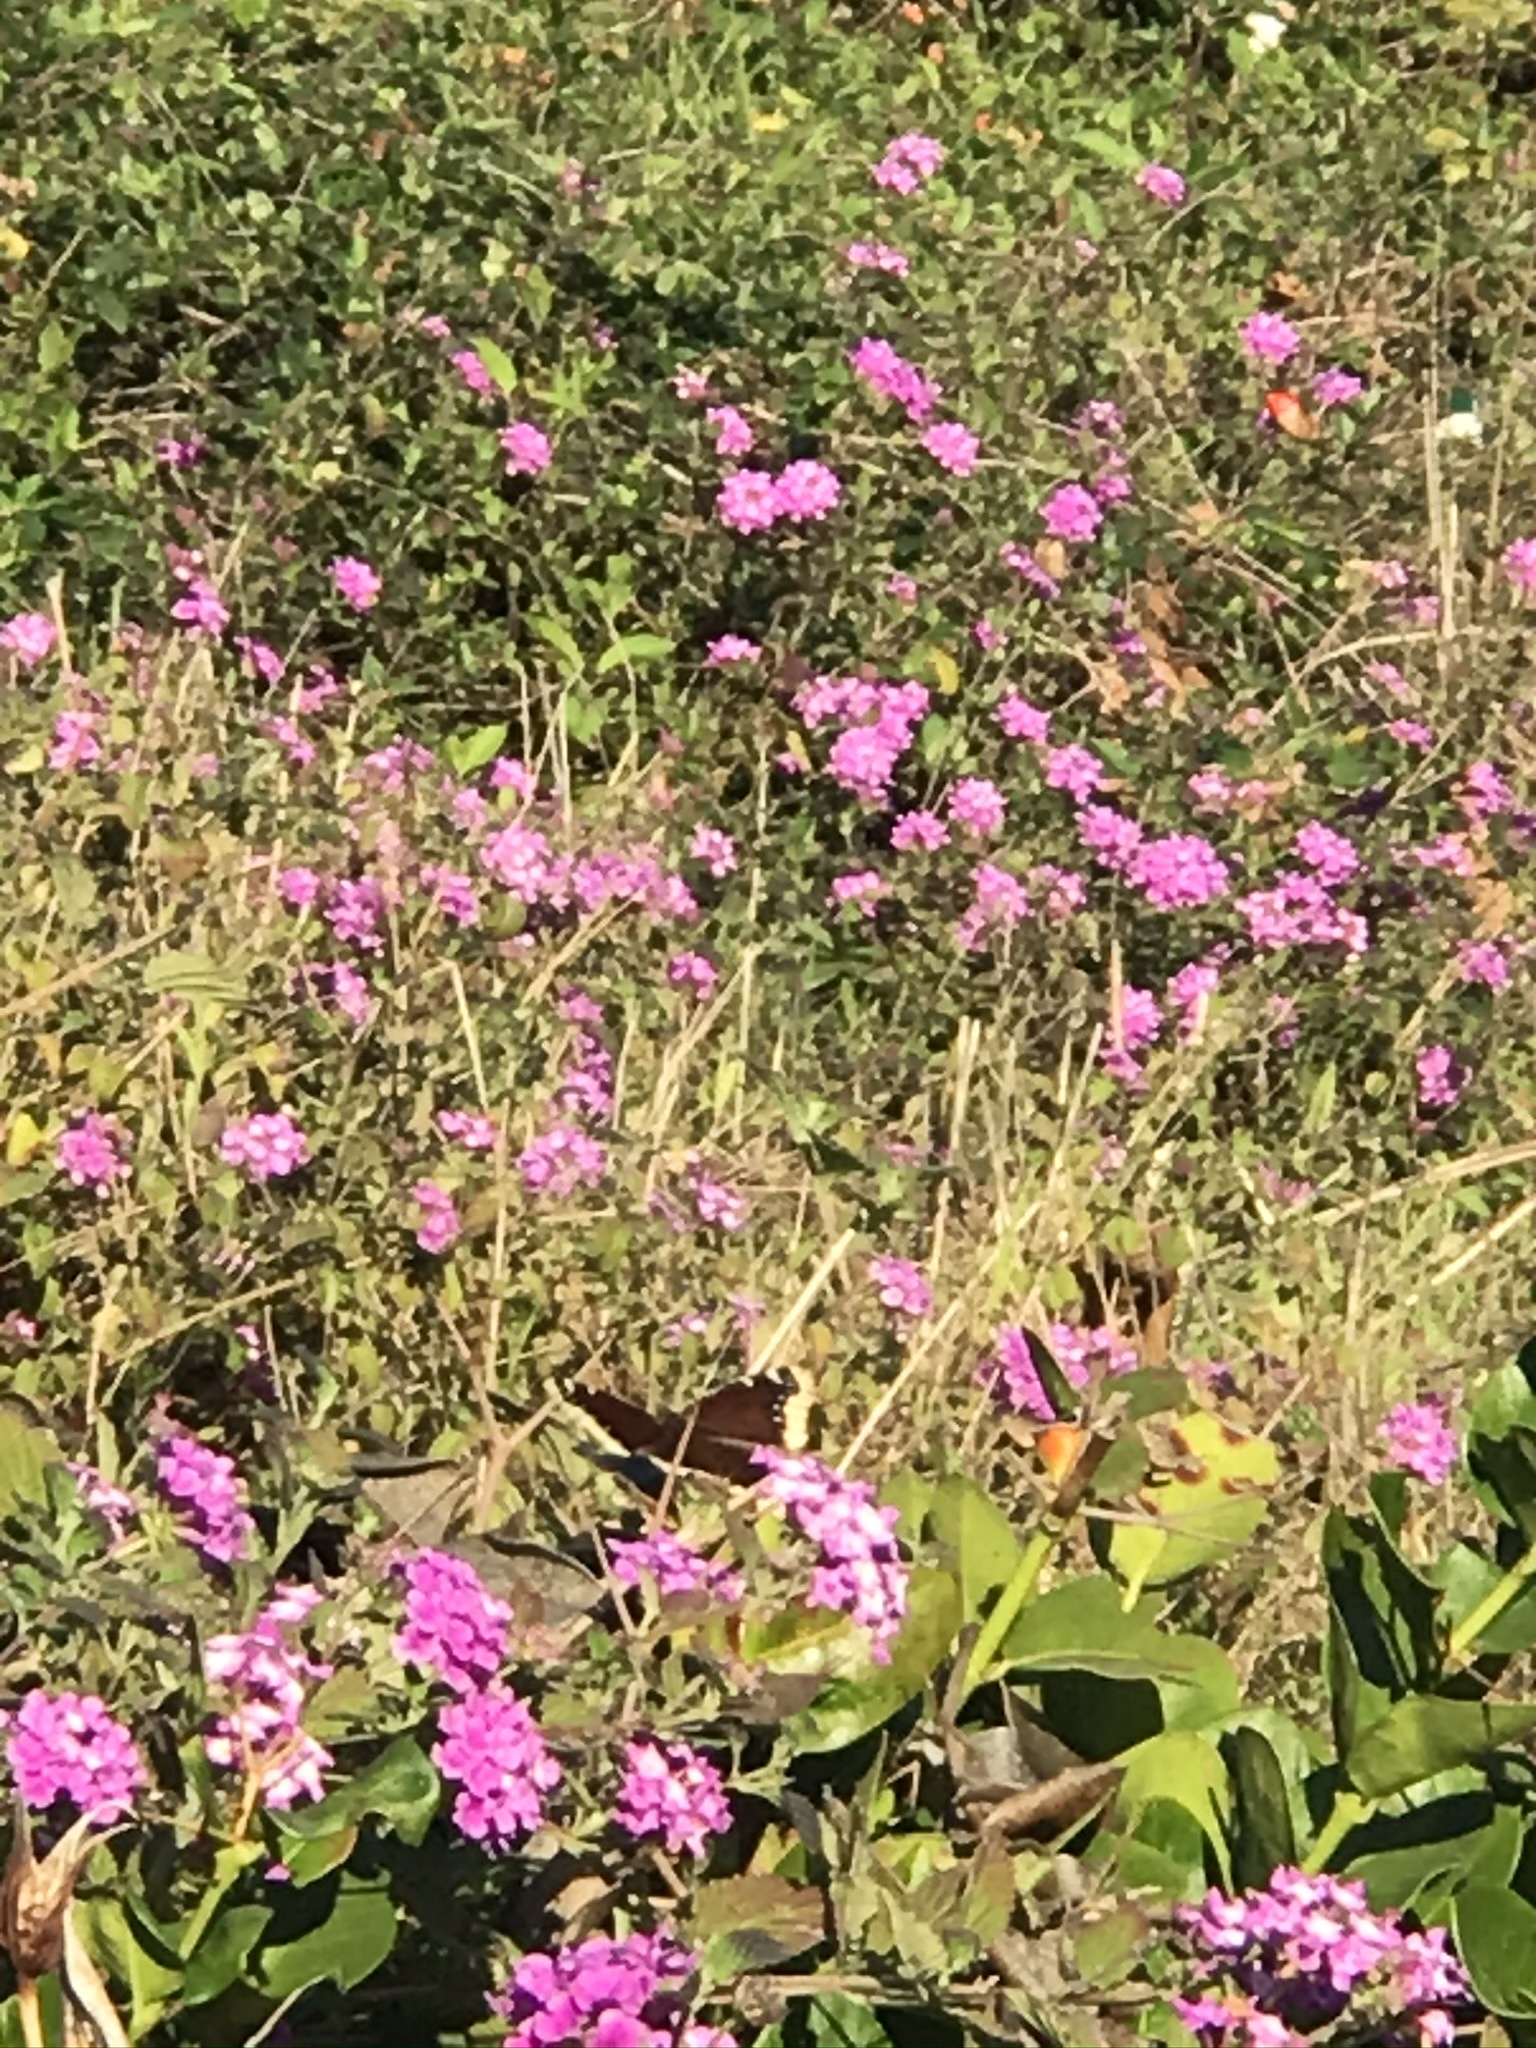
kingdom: Animalia
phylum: Arthropoda
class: Insecta
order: Lepidoptera
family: Nymphalidae
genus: Nymphalis
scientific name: Nymphalis antiopa
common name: Camberwell beauty
